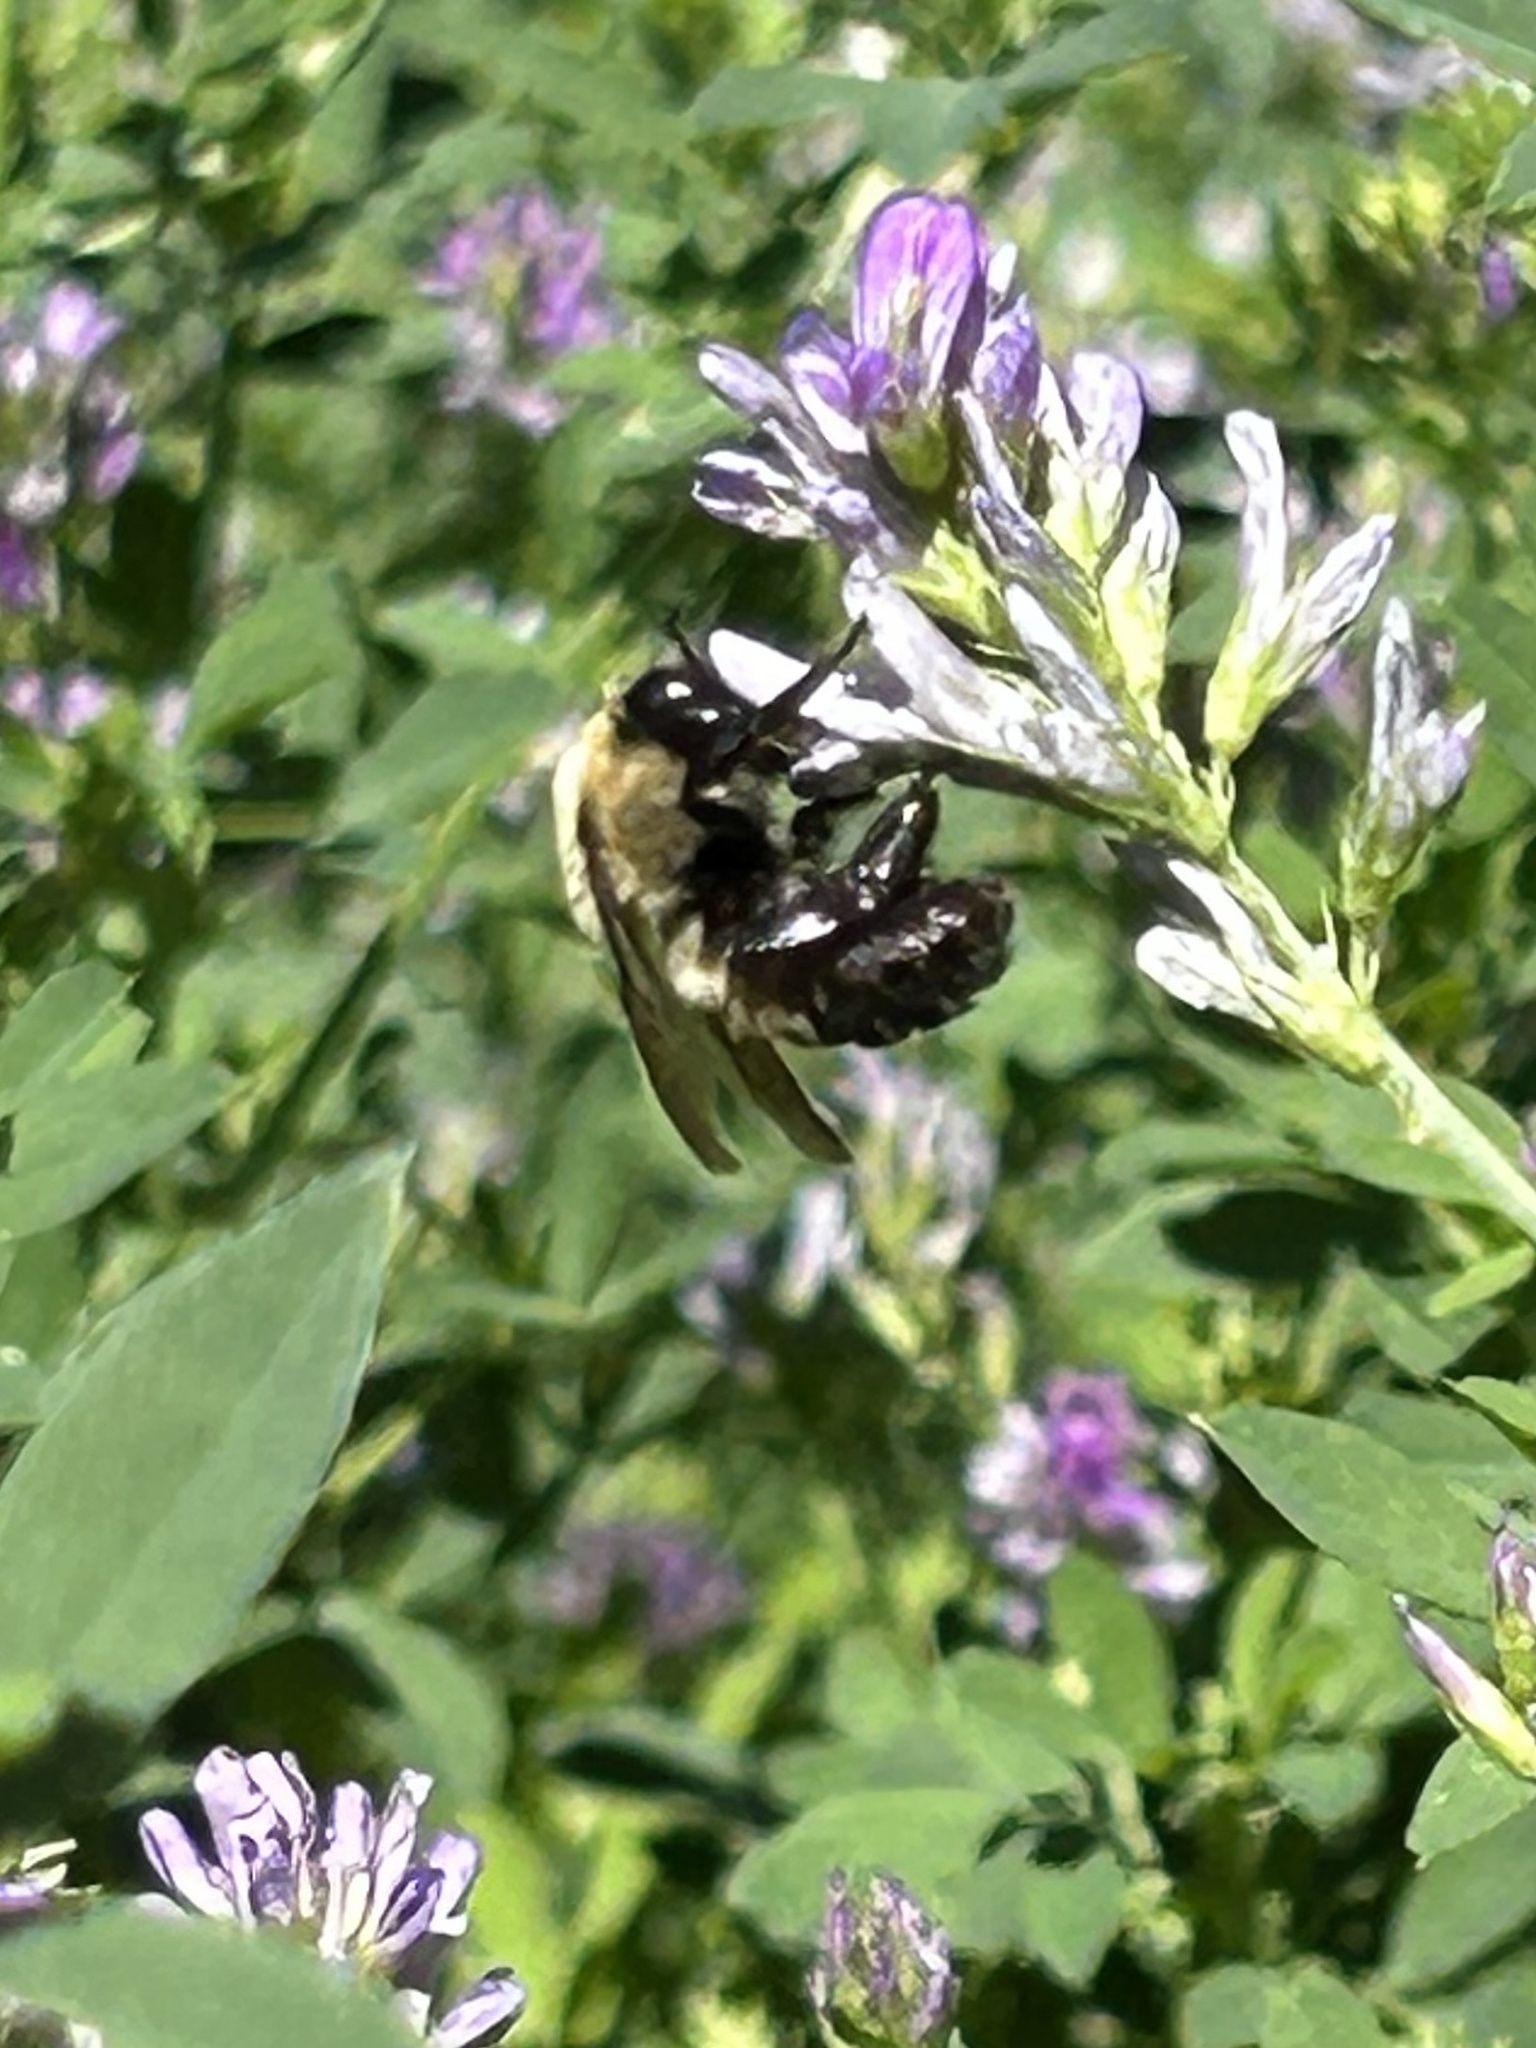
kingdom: Animalia
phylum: Arthropoda
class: Insecta
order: Hymenoptera
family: Apidae
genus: Bombus
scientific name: Bombus griseocollis
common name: Brown-belted bumble bee
